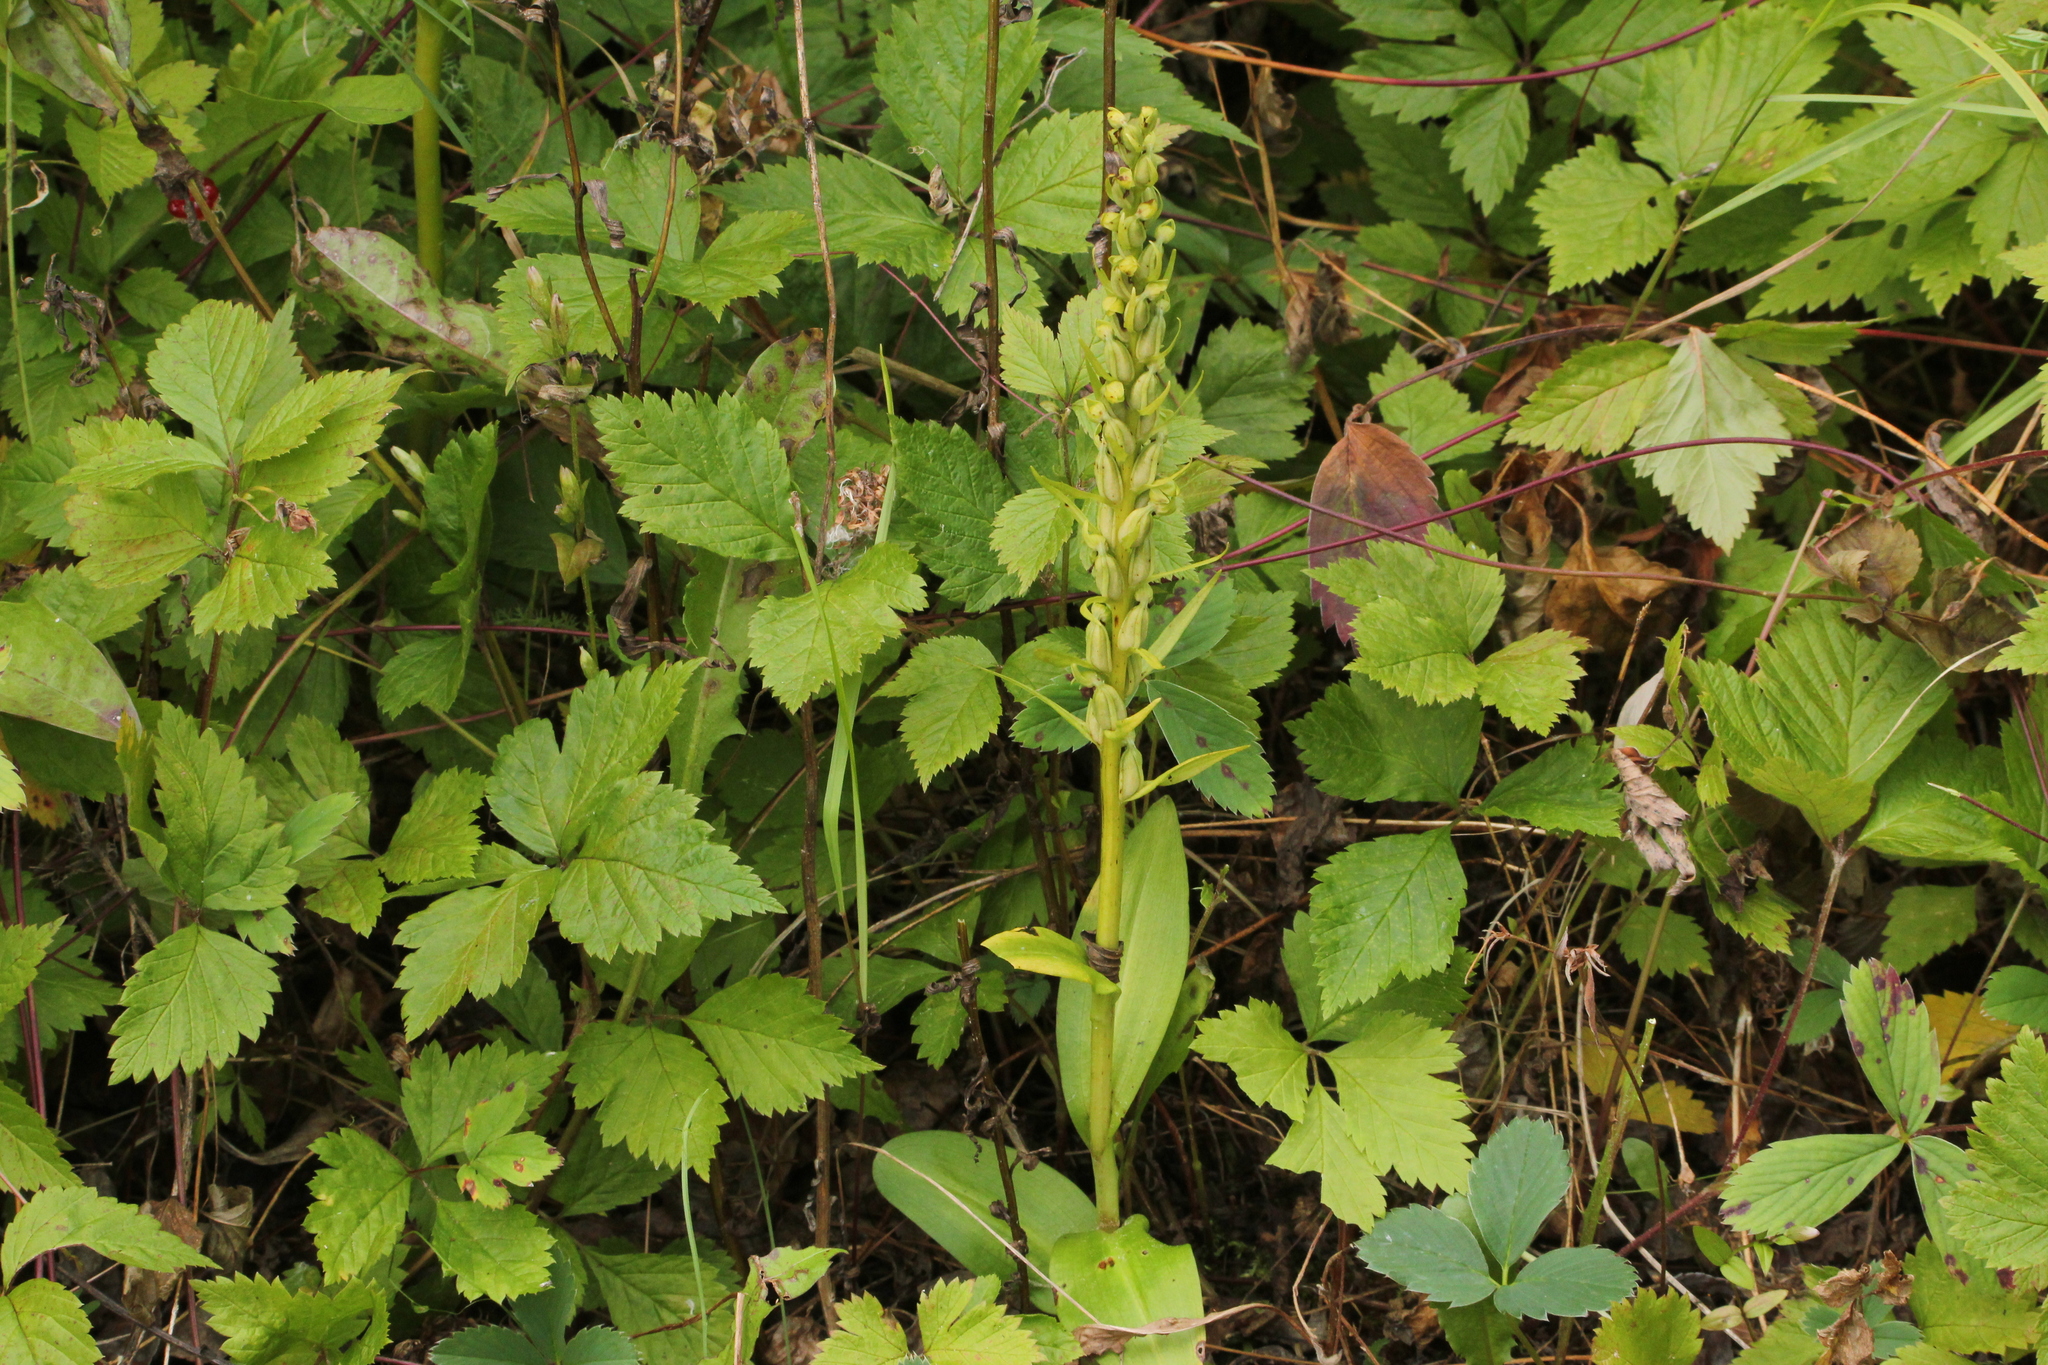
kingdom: Plantae
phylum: Tracheophyta
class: Liliopsida
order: Asparagales
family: Orchidaceae
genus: Dactylorhiza
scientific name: Dactylorhiza viridis
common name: Longbract frog orchid
